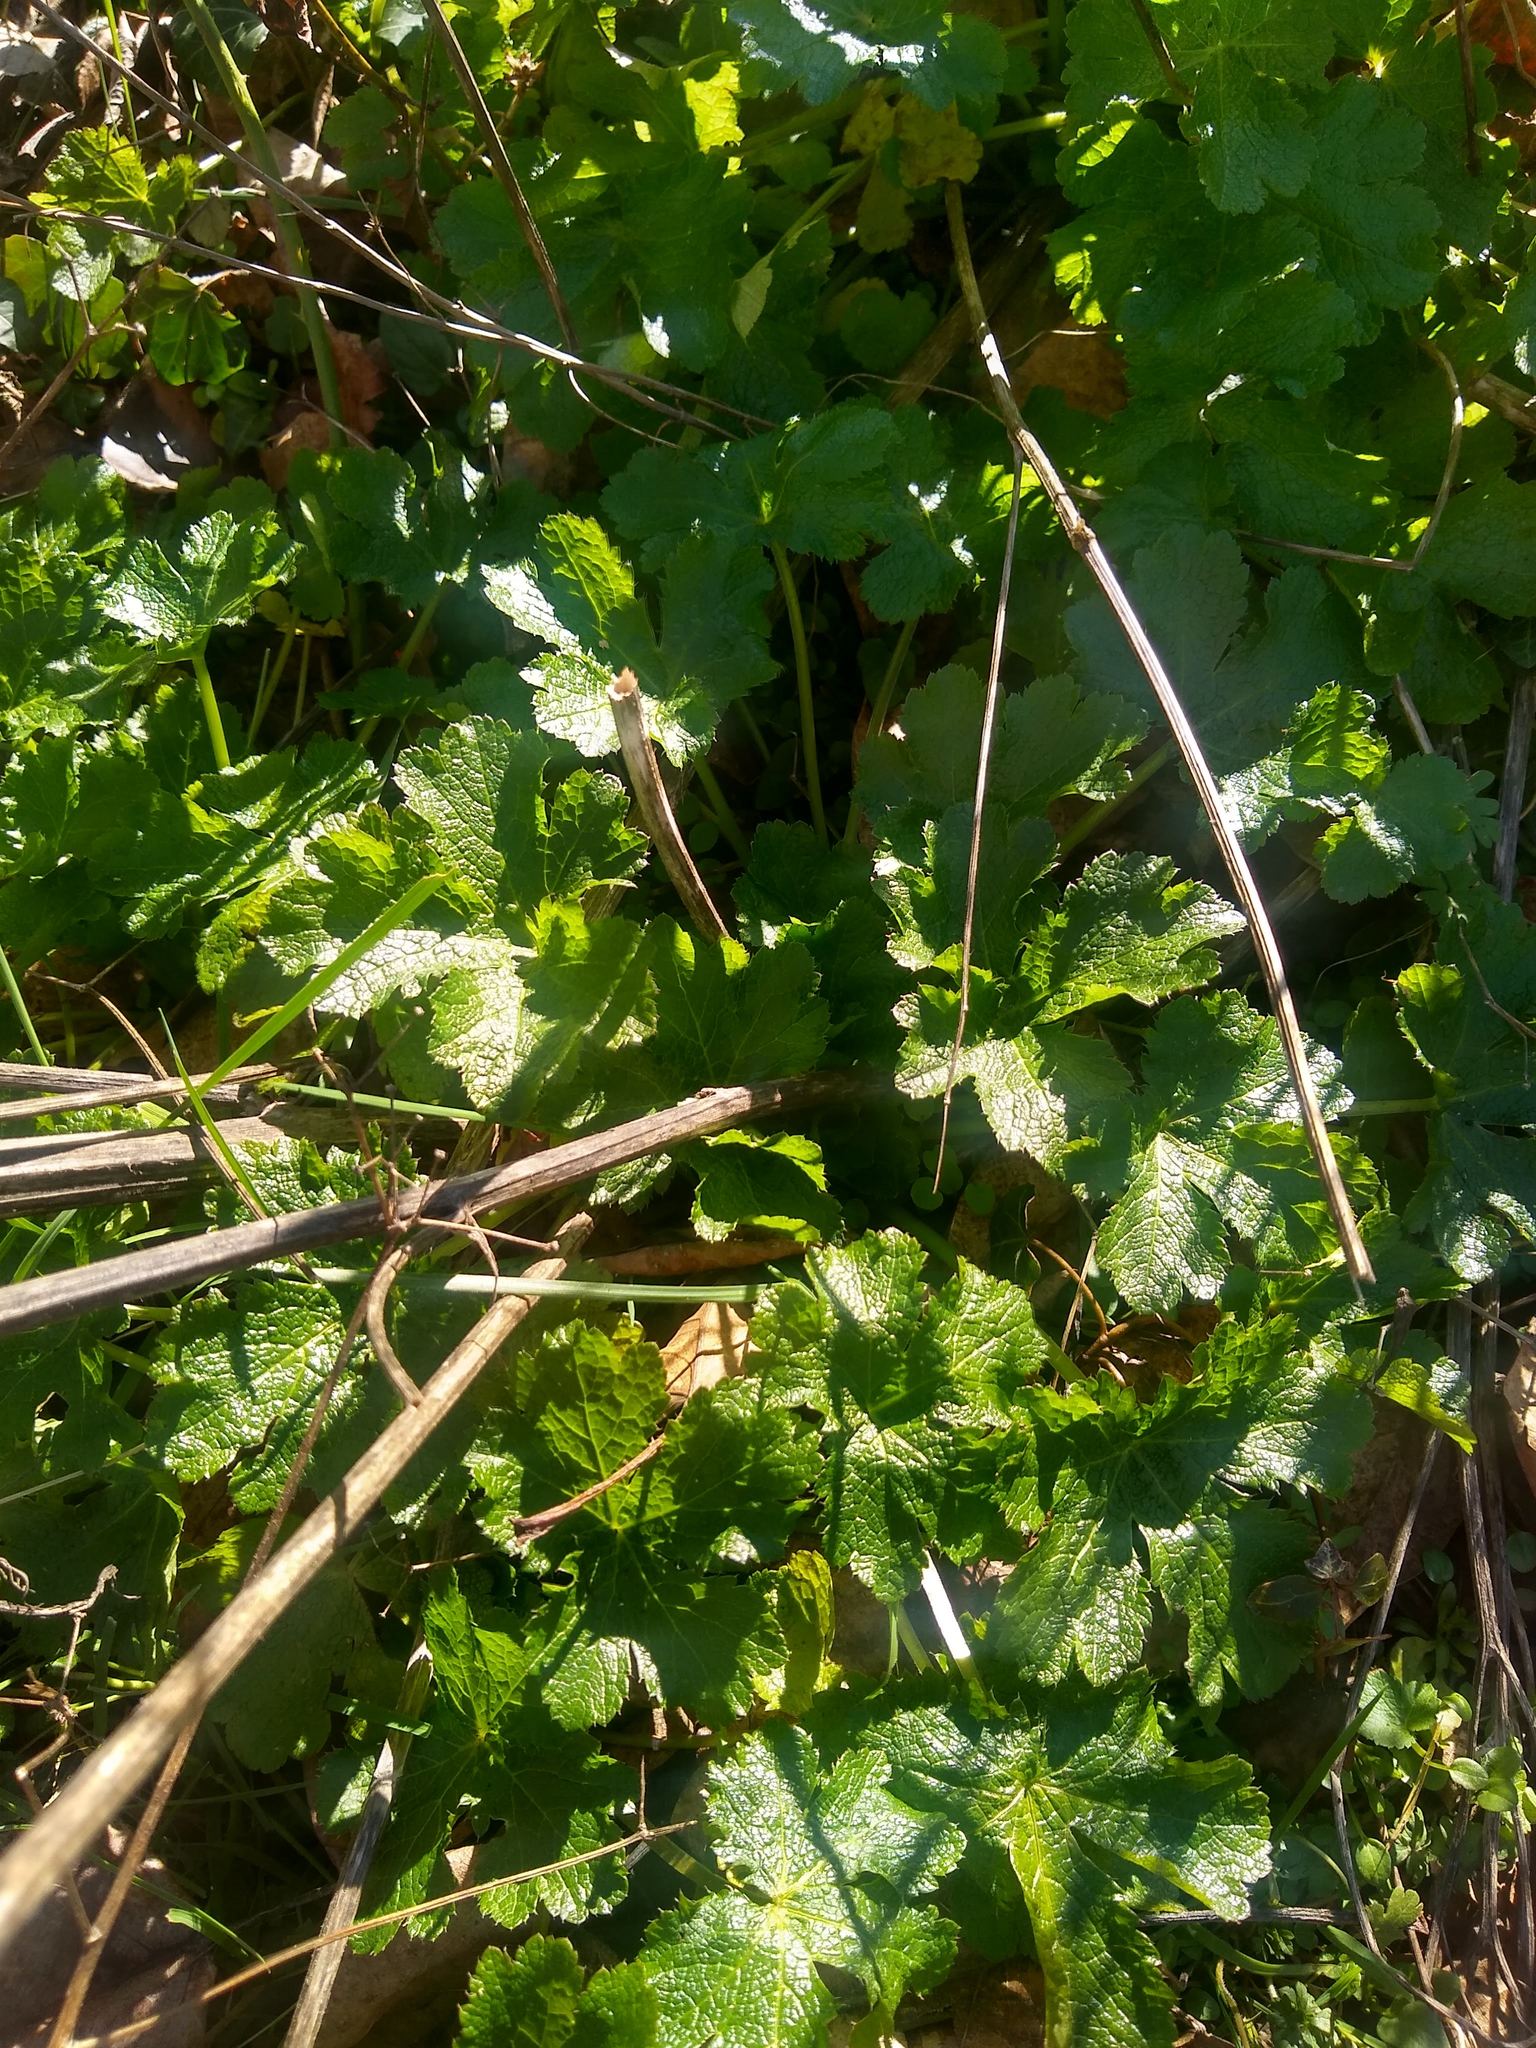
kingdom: Plantae
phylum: Tracheophyta
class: Magnoliopsida
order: Apiales
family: Apiaceae
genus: Sanicula
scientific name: Sanicula crassicaulis
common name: Western snakeroot
